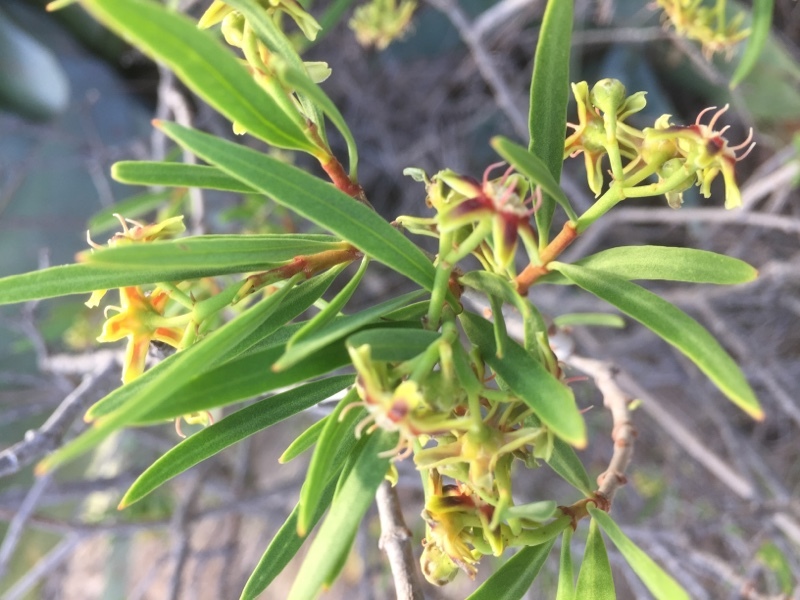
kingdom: Plantae
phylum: Tracheophyta
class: Magnoliopsida
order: Gentianales
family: Apocynaceae
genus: Periploca
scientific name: Periploca laevigata
